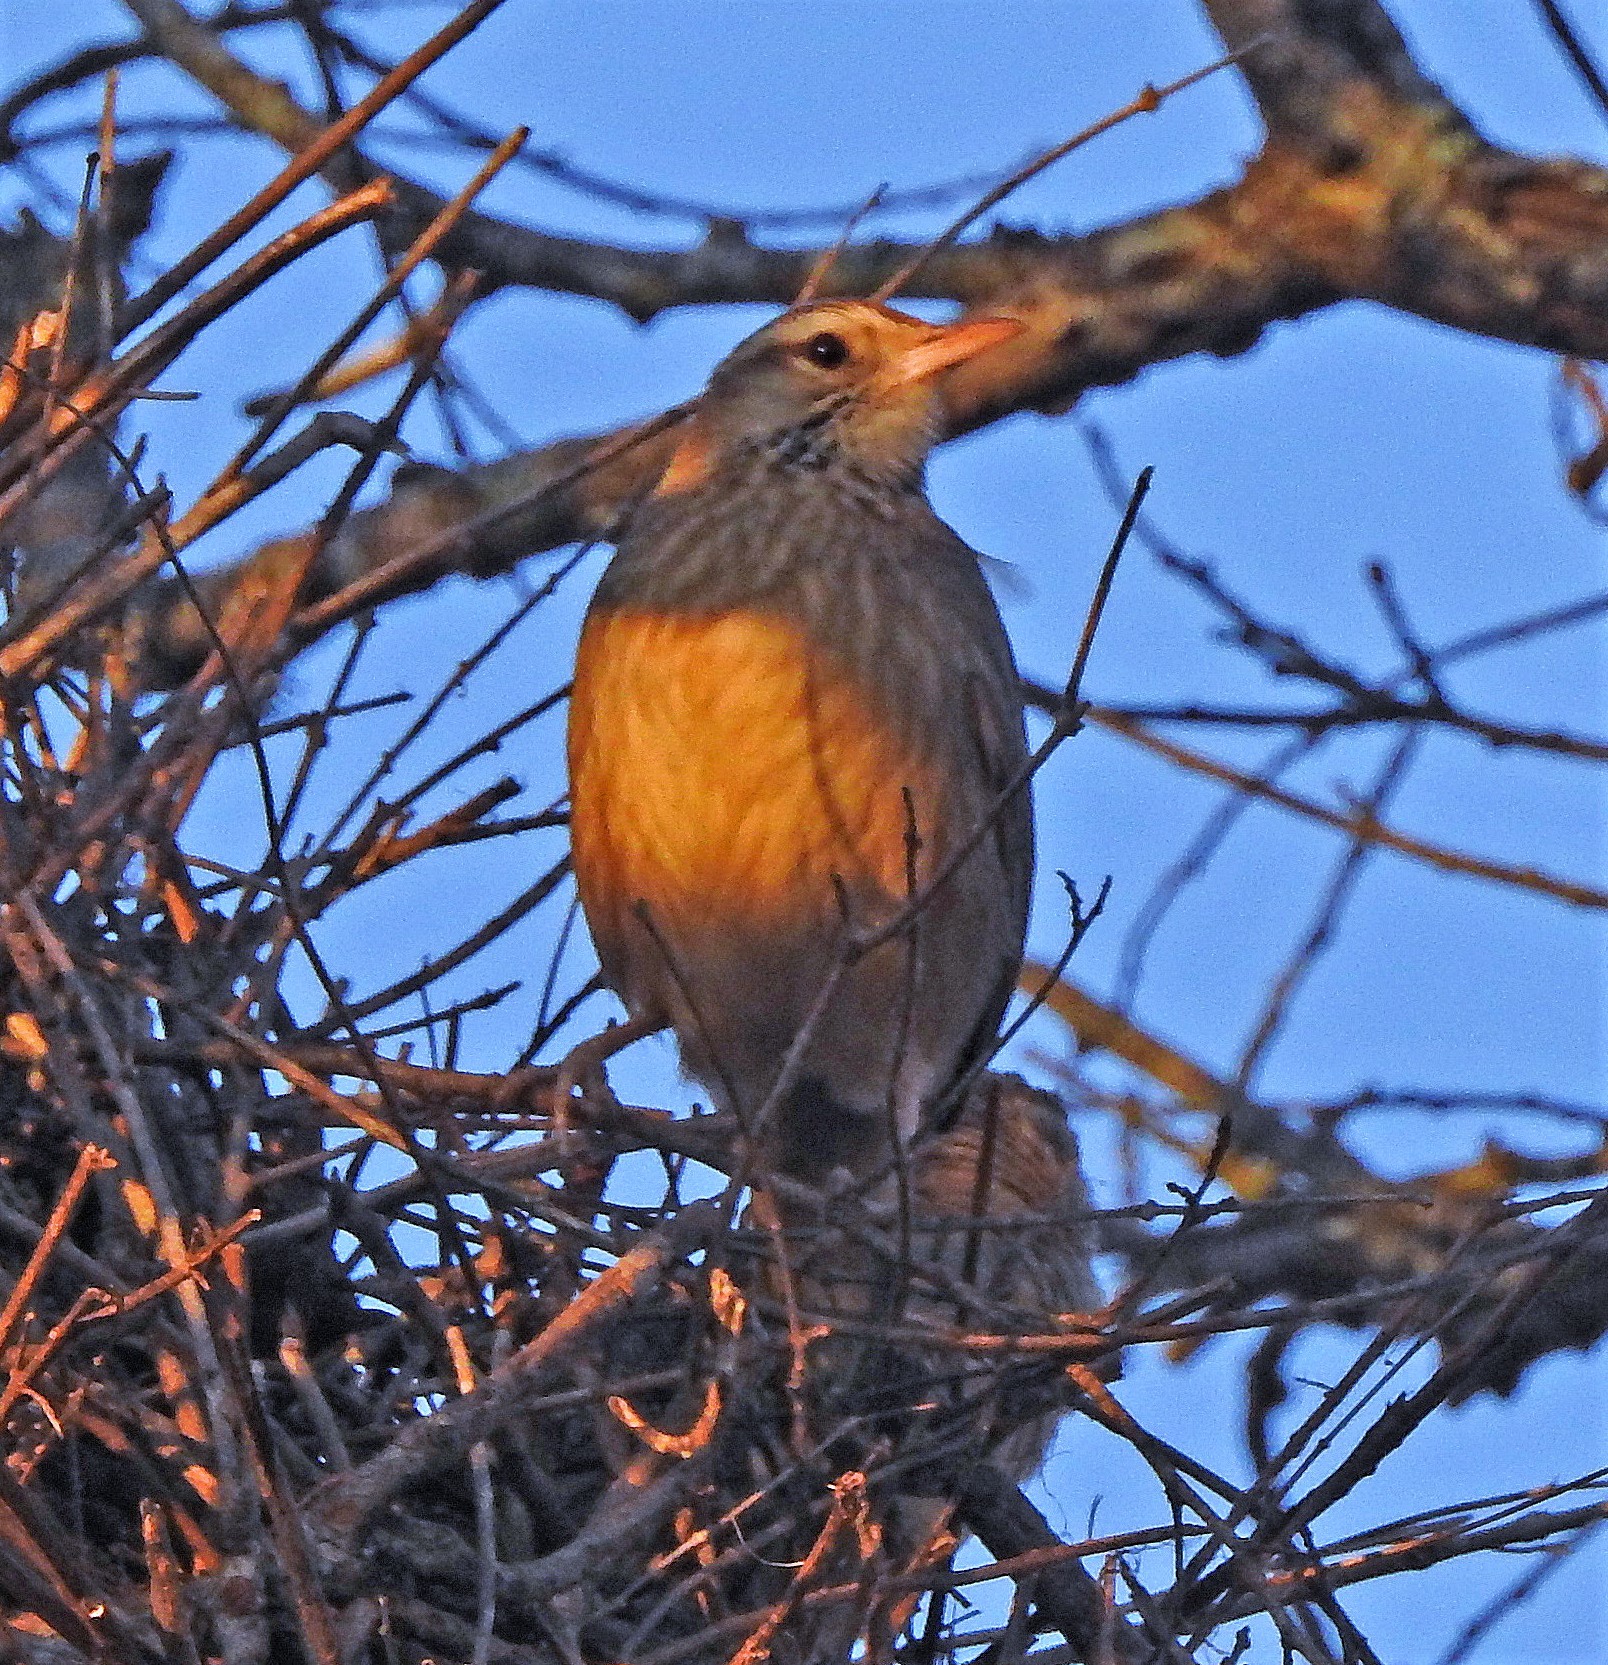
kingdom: Animalia
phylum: Chordata
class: Aves
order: Passeriformes
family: Furnariidae
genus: Anumbius
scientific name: Anumbius annumbi
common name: Firewood-gatherer
